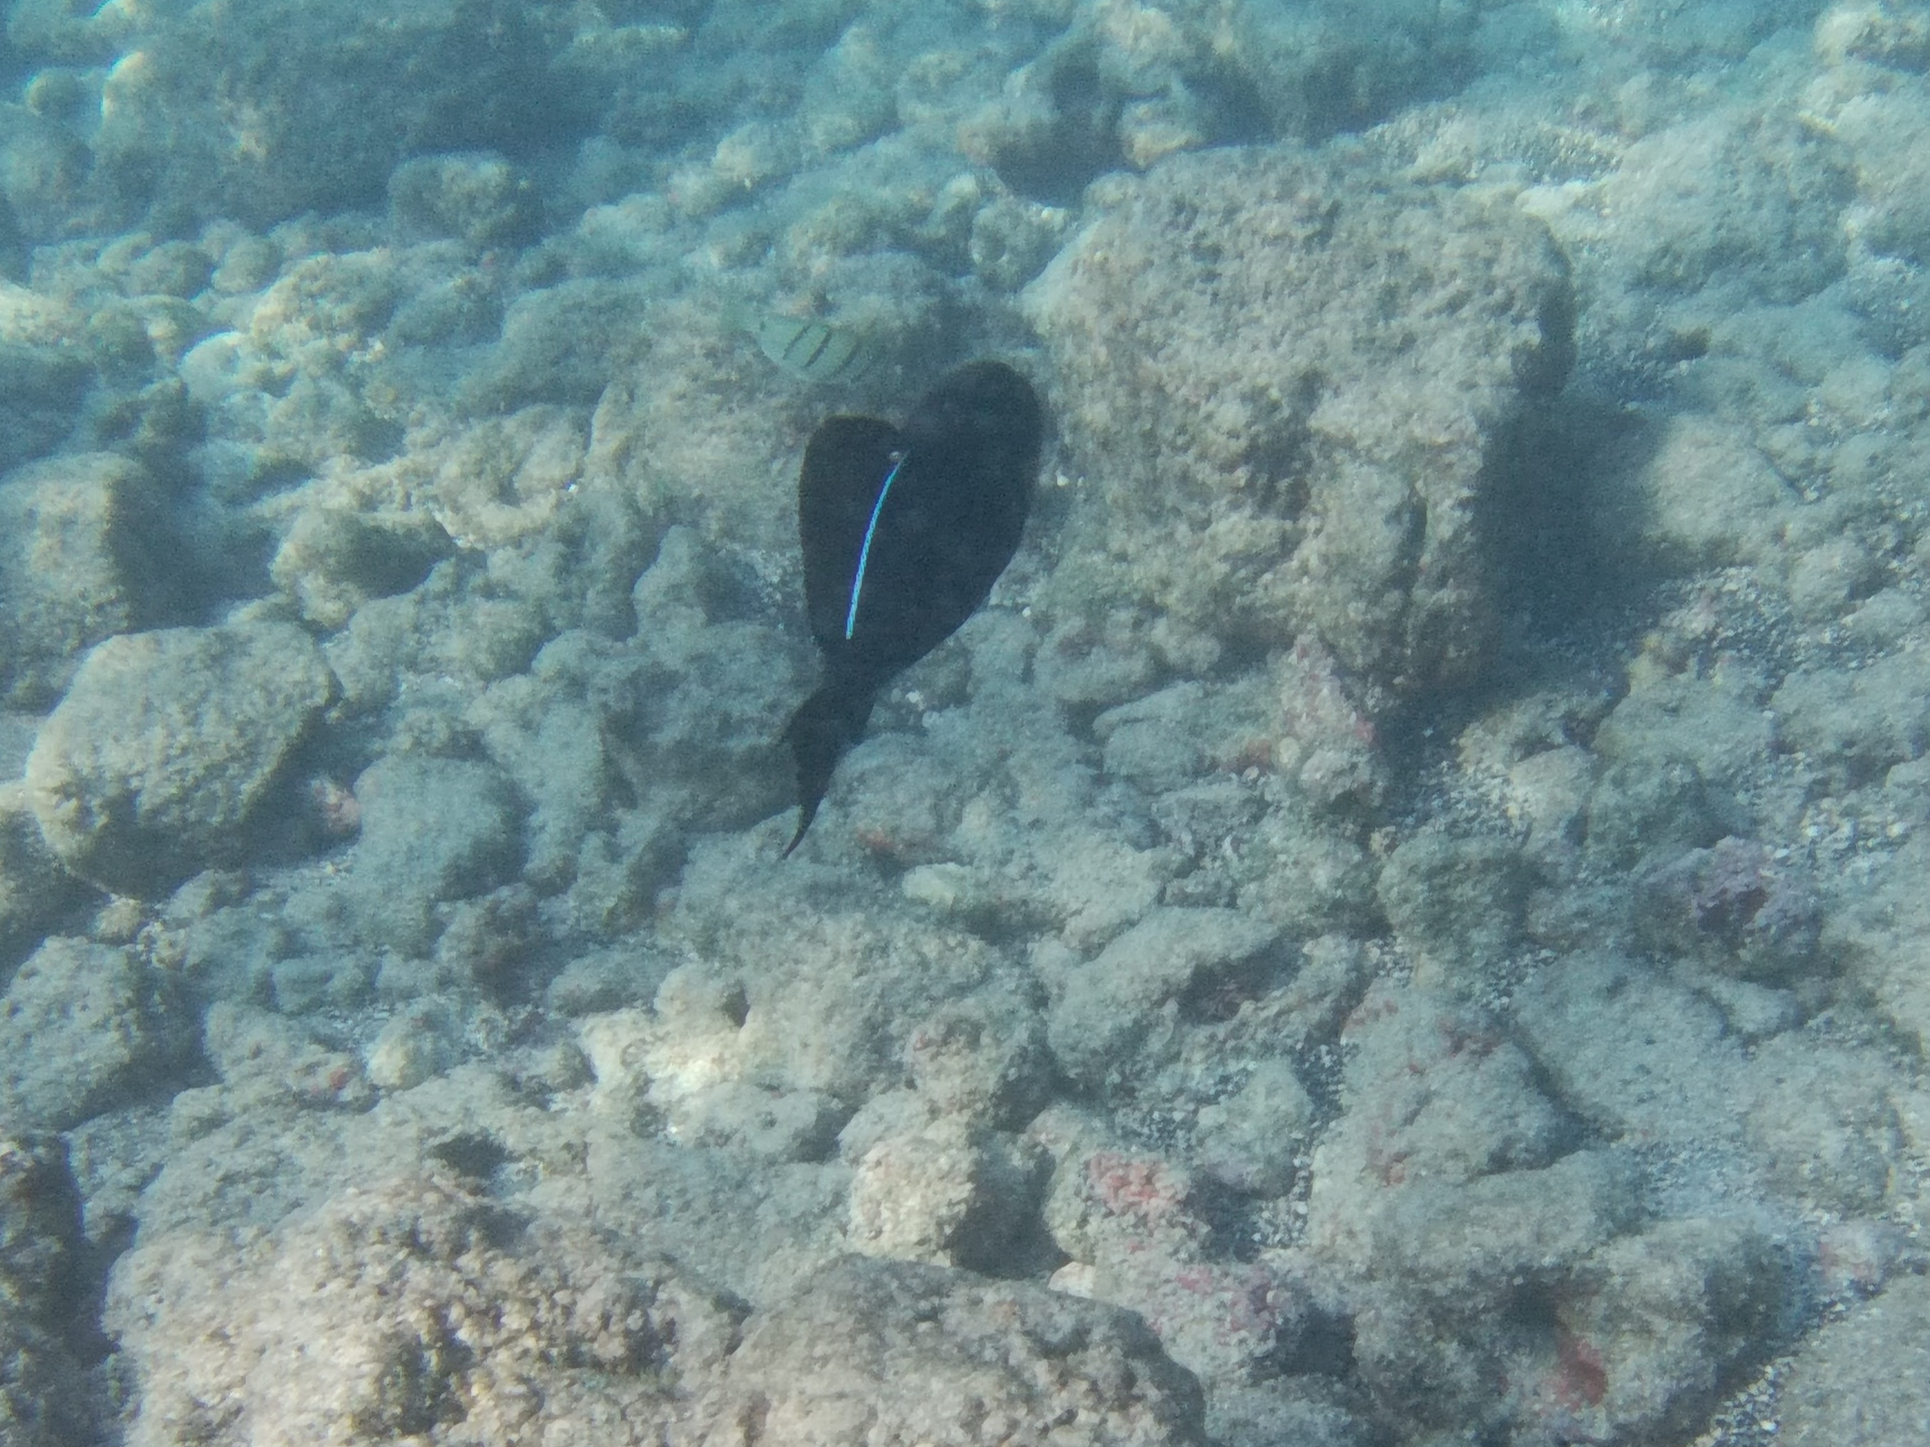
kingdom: Animalia
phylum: Chordata
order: Tetraodontiformes
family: Balistidae
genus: Melichthys
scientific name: Melichthys niger
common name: Black durgon
